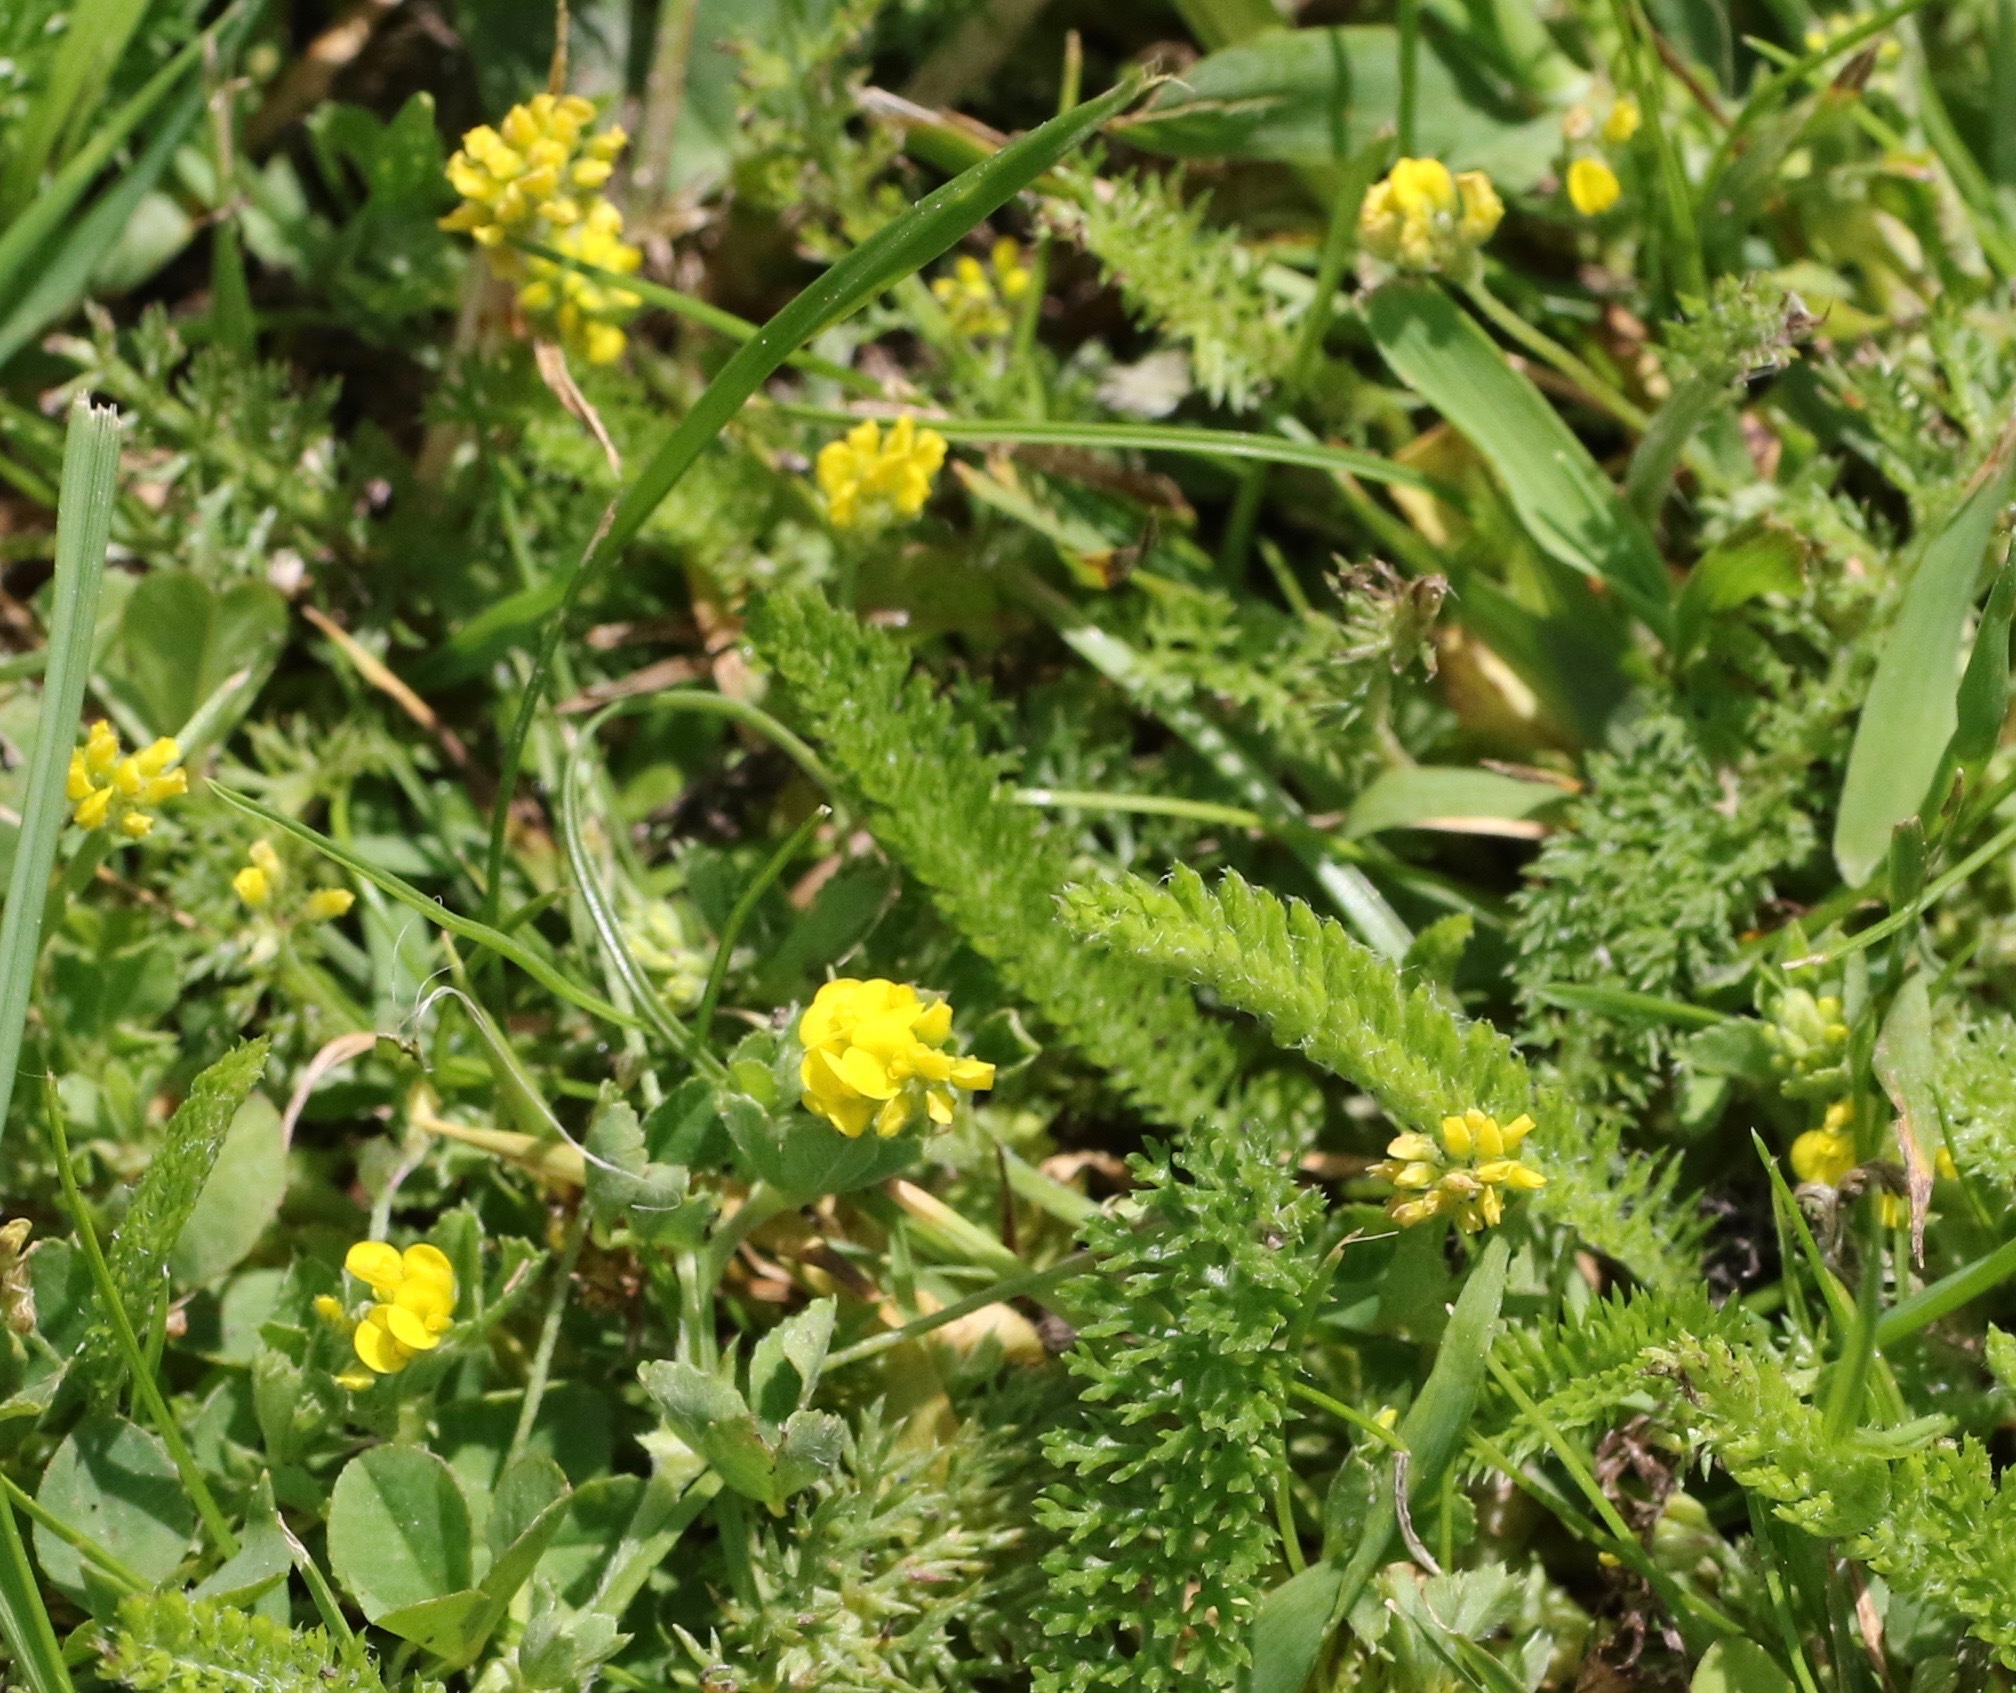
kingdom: Plantae
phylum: Tracheophyta
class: Magnoliopsida
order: Fabales
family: Fabaceae
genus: Medicago
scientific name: Medicago lupulina
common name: Black medick
